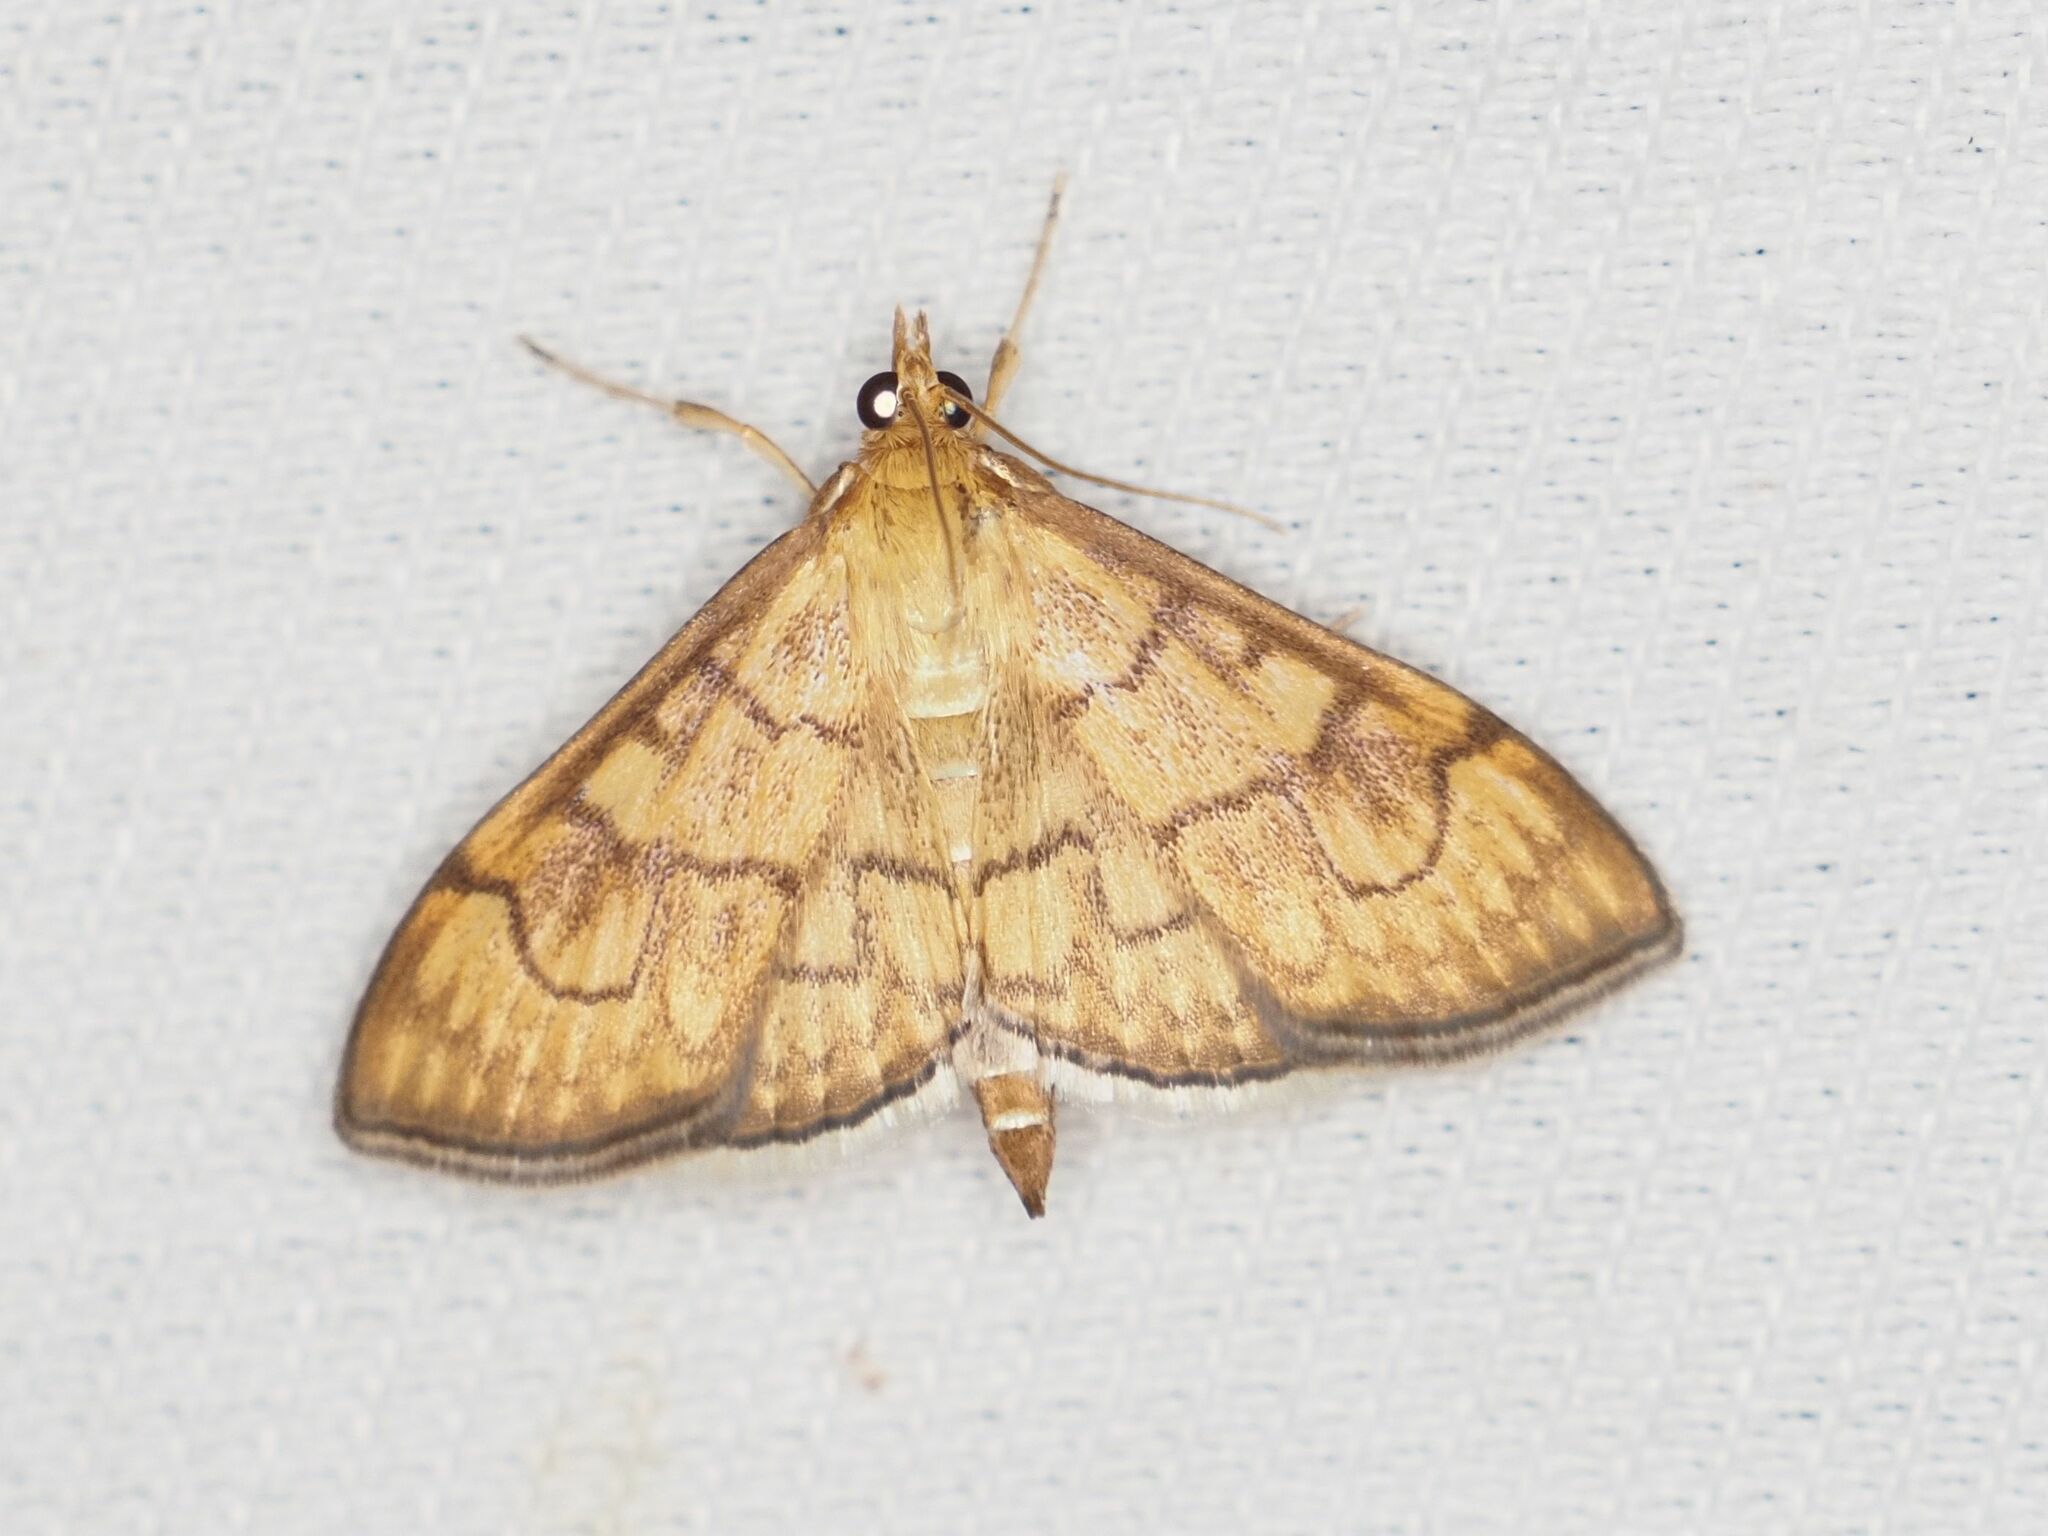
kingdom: Animalia
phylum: Arthropoda
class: Insecta
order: Lepidoptera
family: Crambidae
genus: Anania
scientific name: Anania verbascalis
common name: Golden pearl
